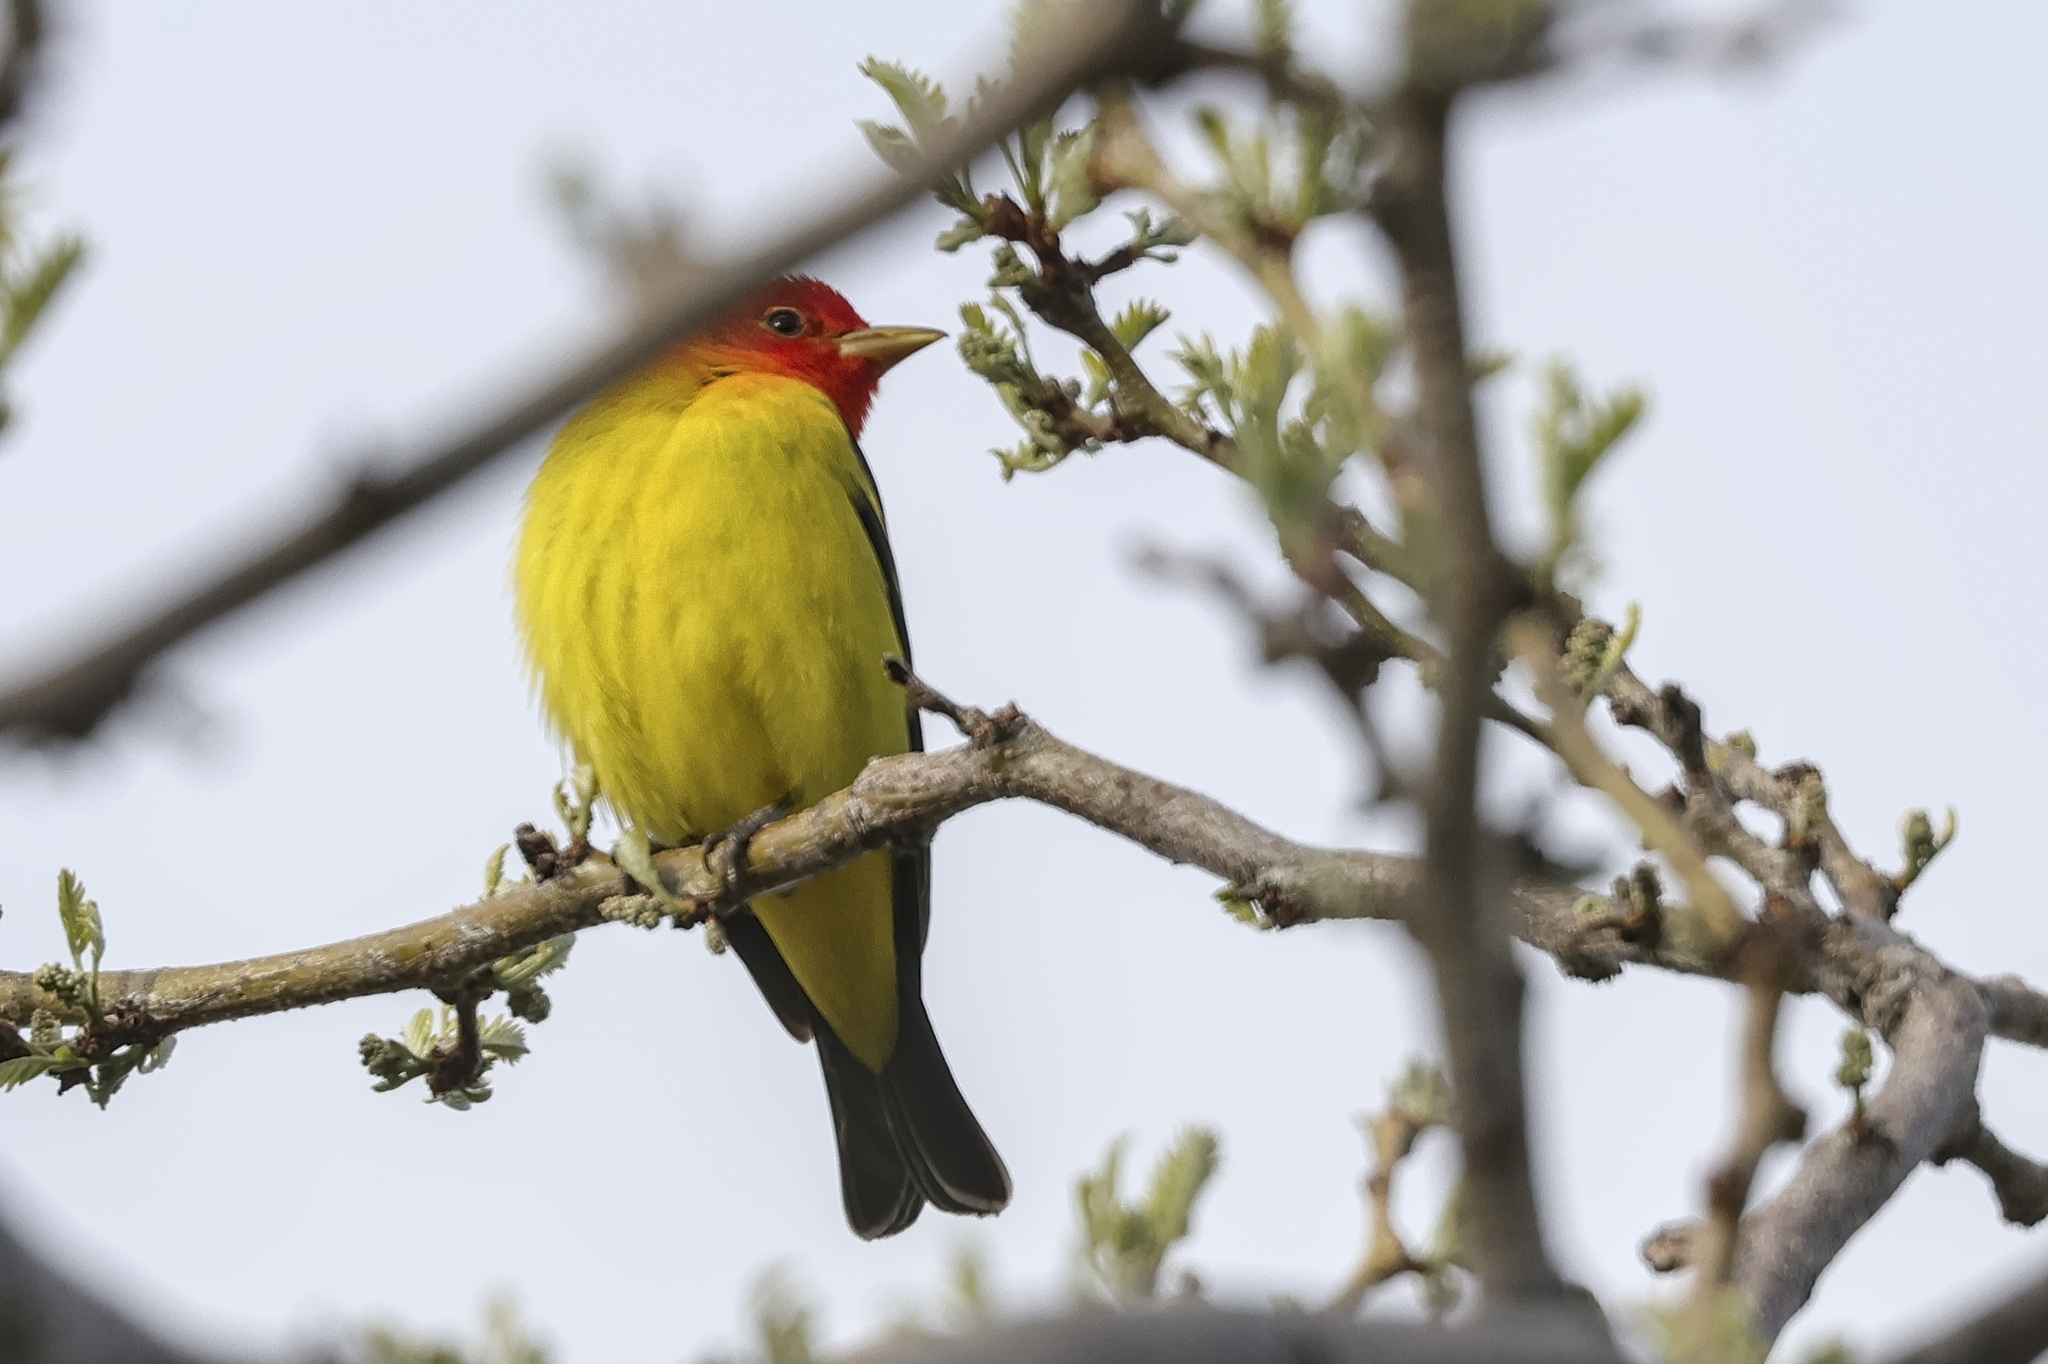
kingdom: Animalia
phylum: Chordata
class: Aves
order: Passeriformes
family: Cardinalidae
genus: Piranga
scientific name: Piranga ludoviciana
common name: Western tanager
